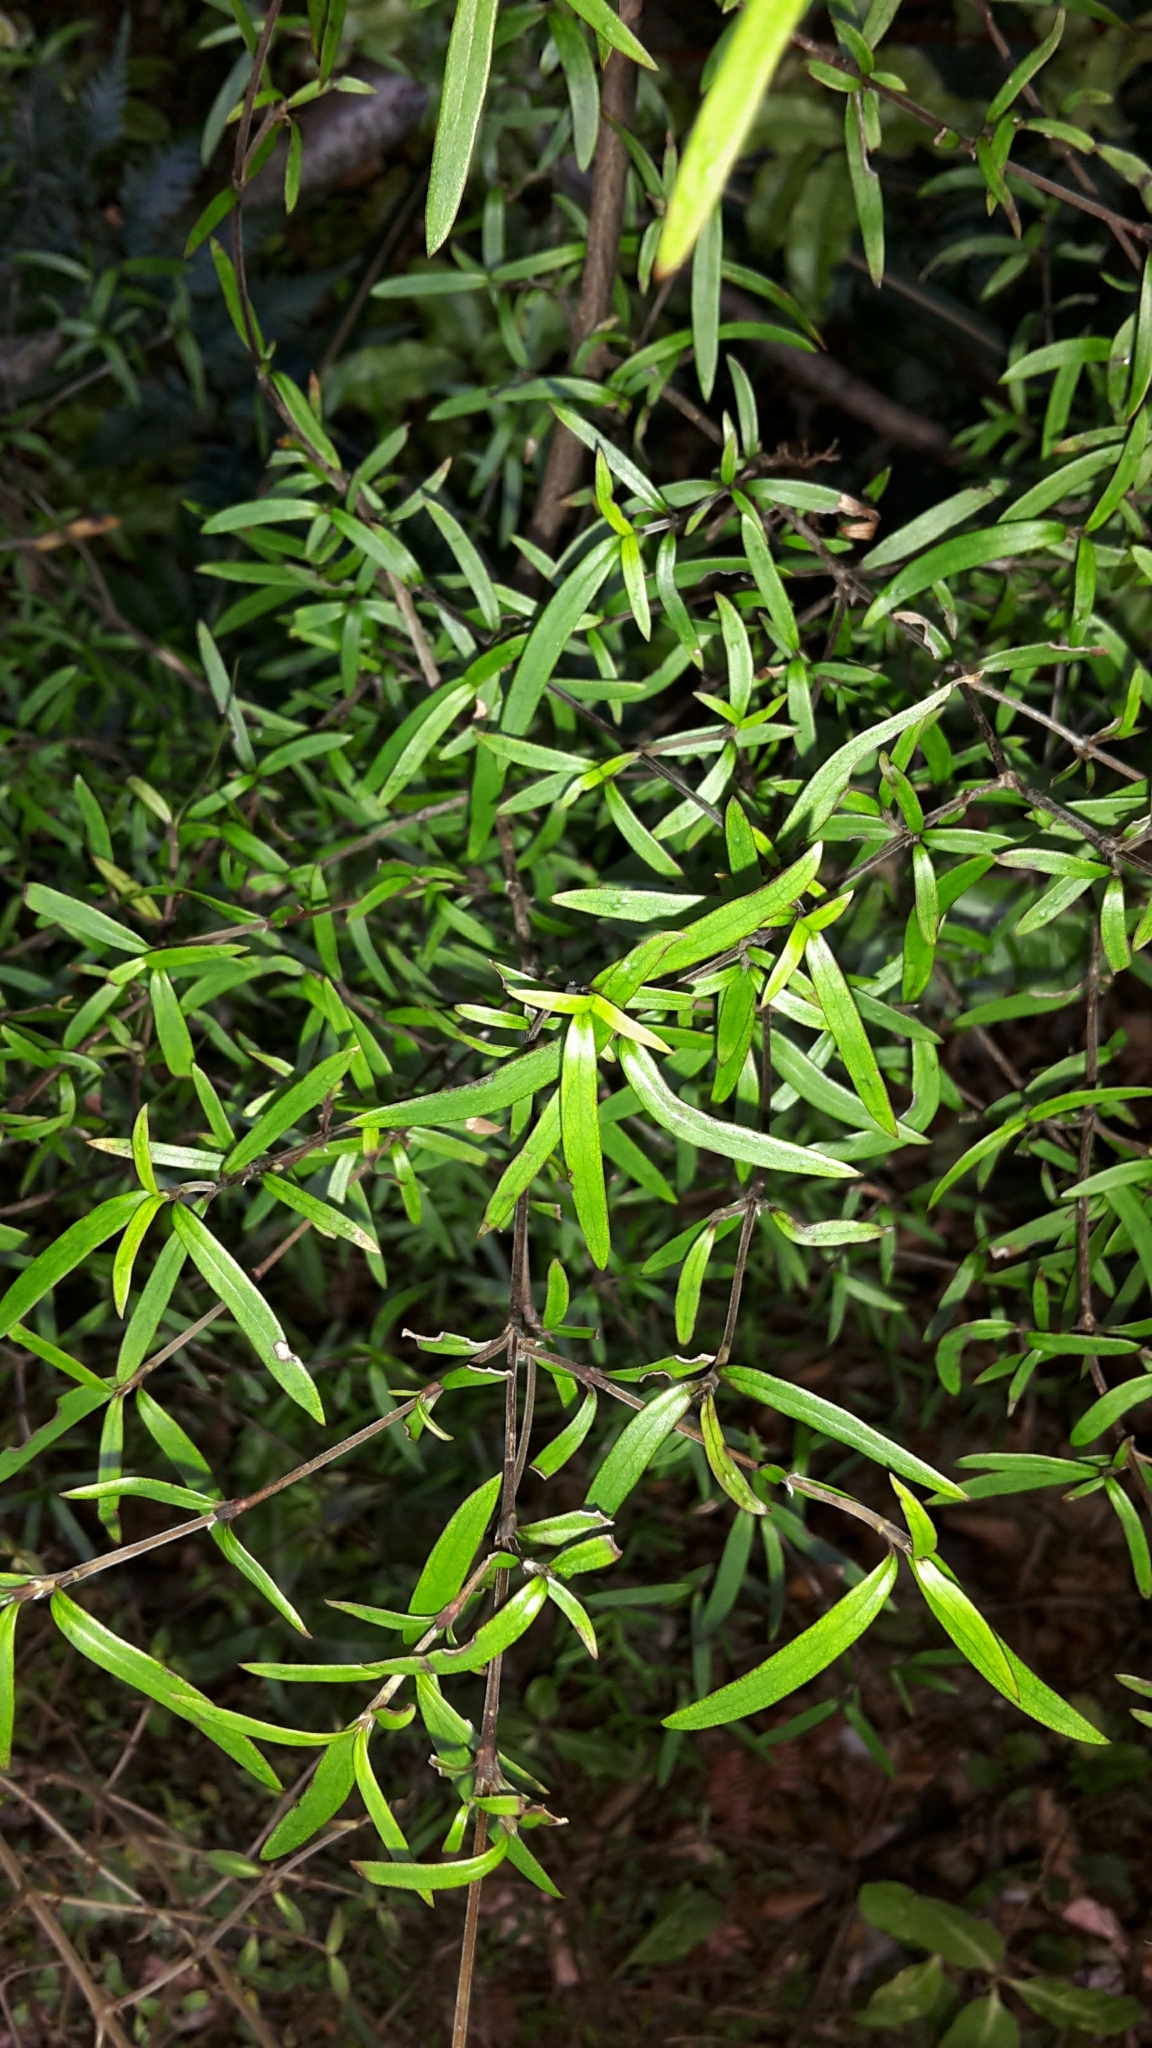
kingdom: Plantae
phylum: Tracheophyta
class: Magnoliopsida
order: Gentianales
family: Rubiaceae
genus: Coprosma
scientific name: Coprosma linariifolia
